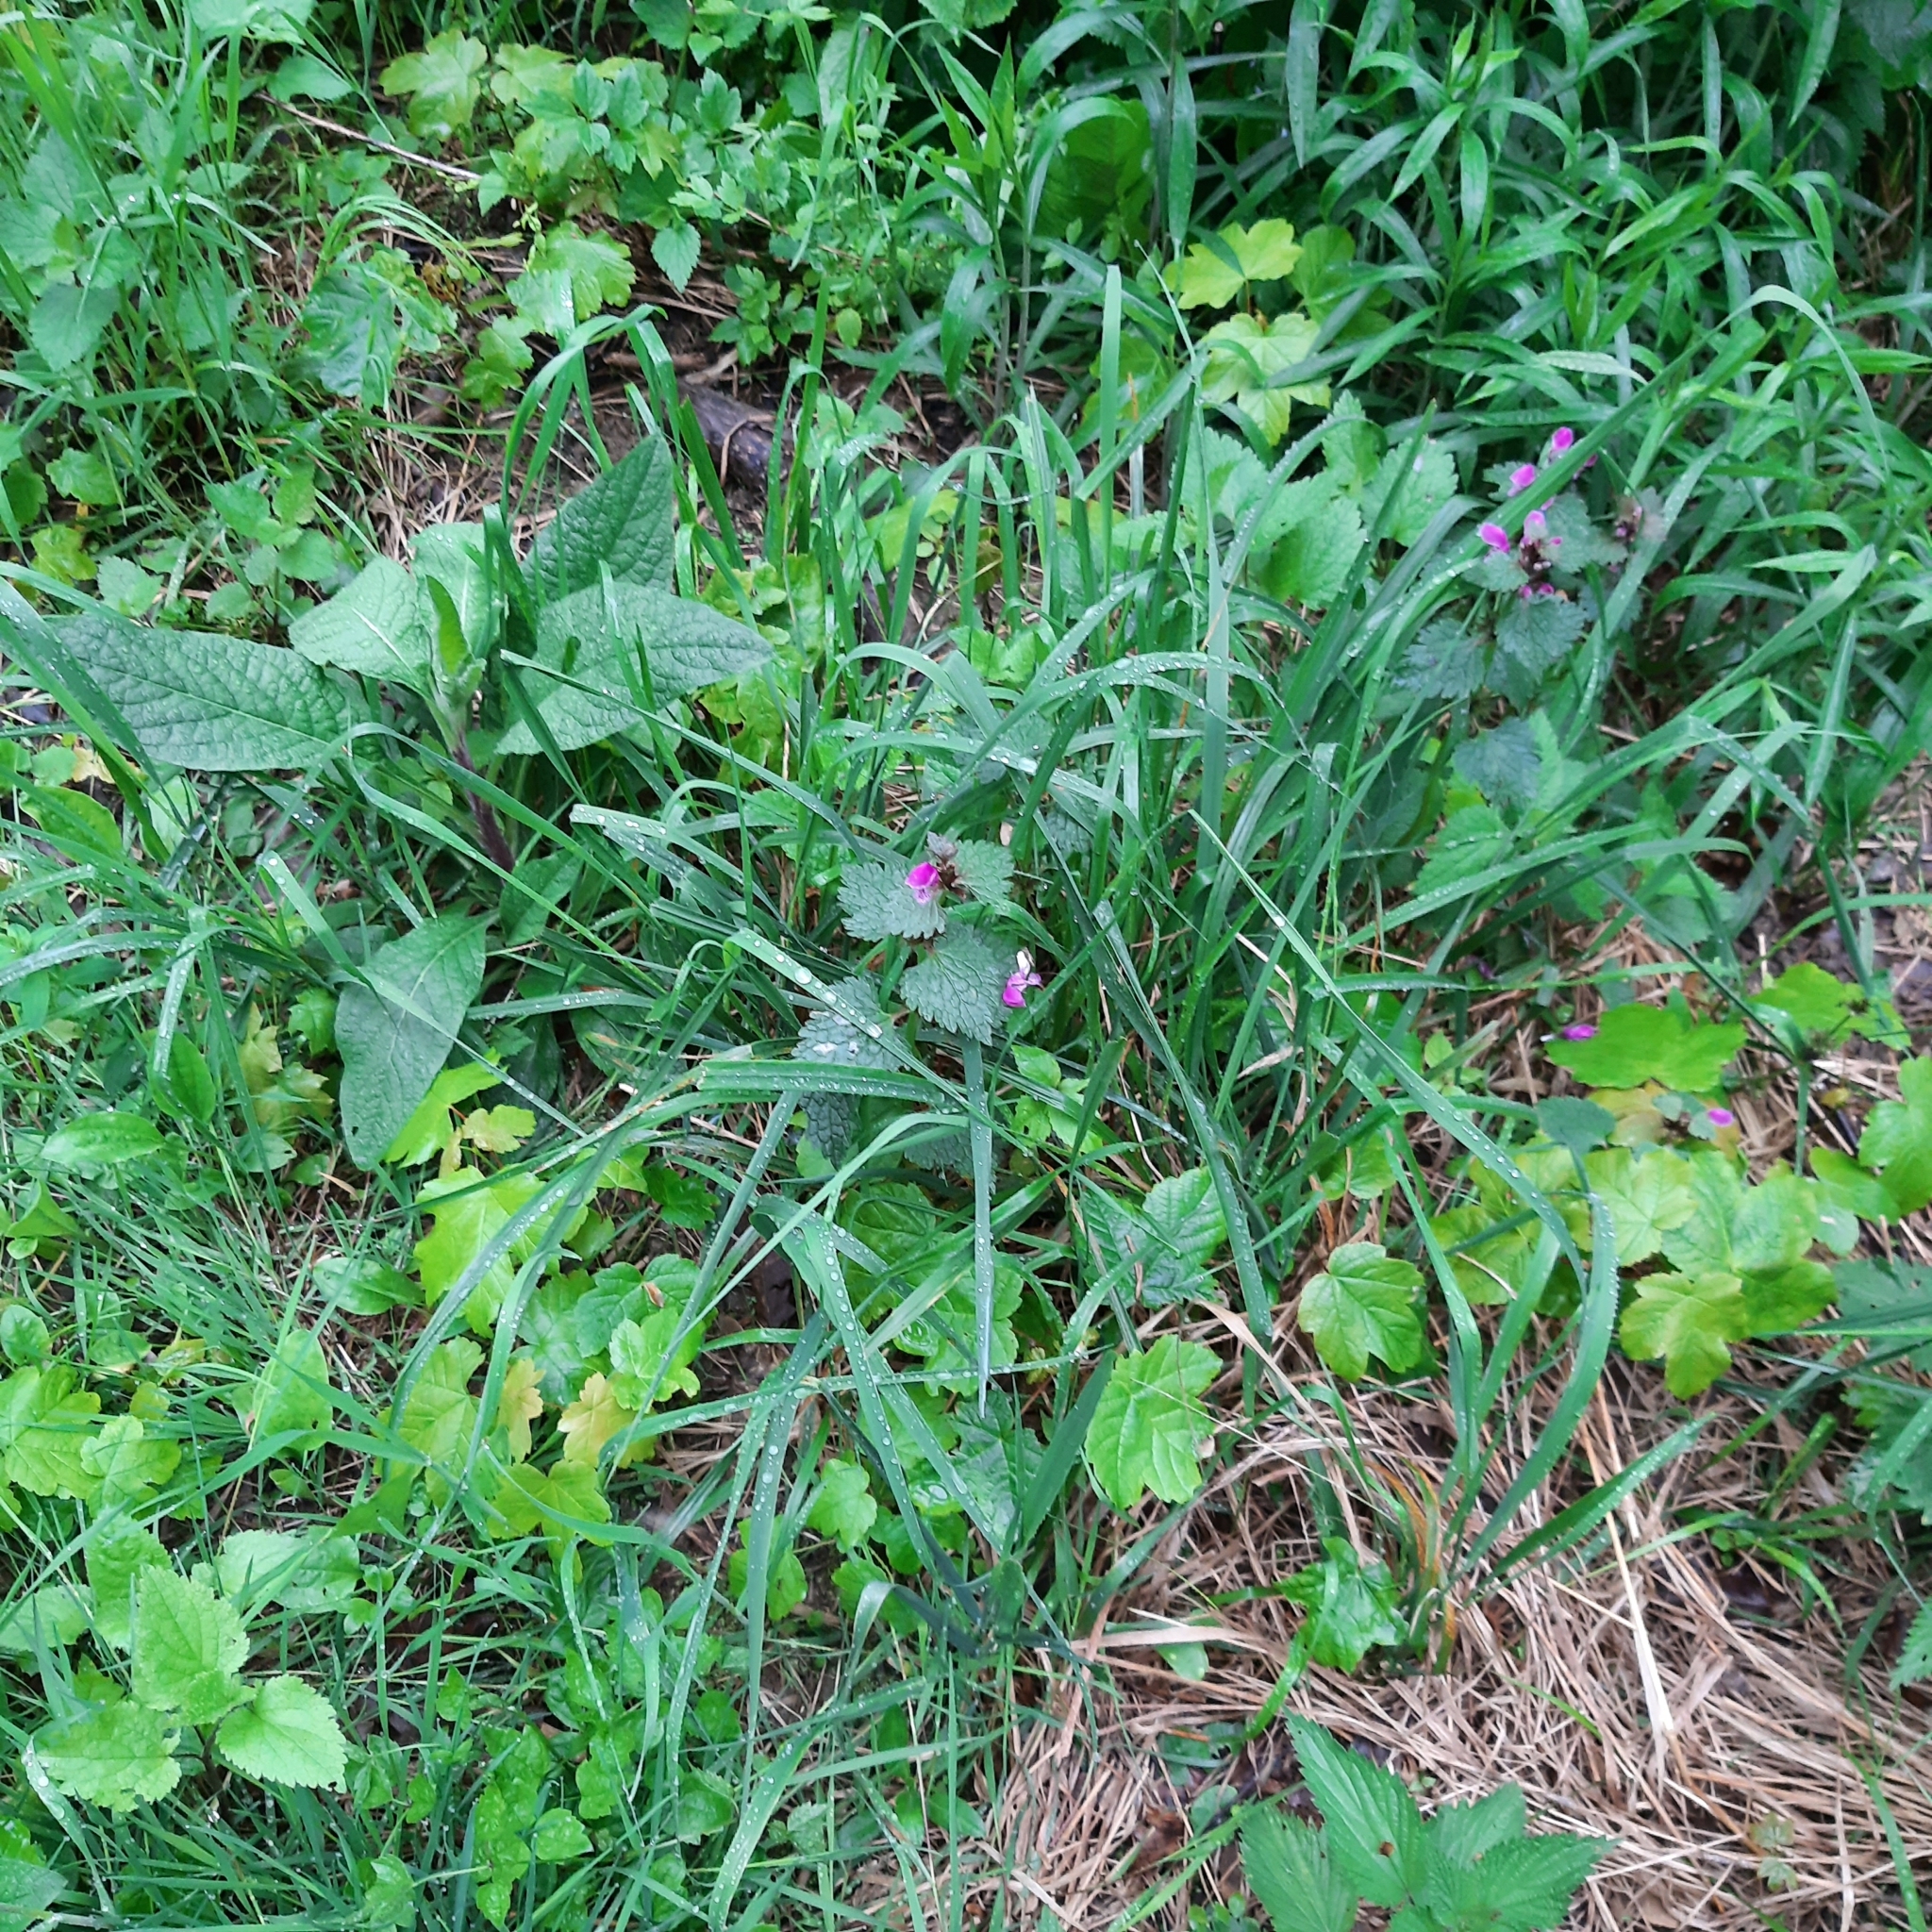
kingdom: Plantae
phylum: Tracheophyta
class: Magnoliopsida
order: Lamiales
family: Lamiaceae
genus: Lamium
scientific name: Lamium maculatum
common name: Spotted dead-nettle
